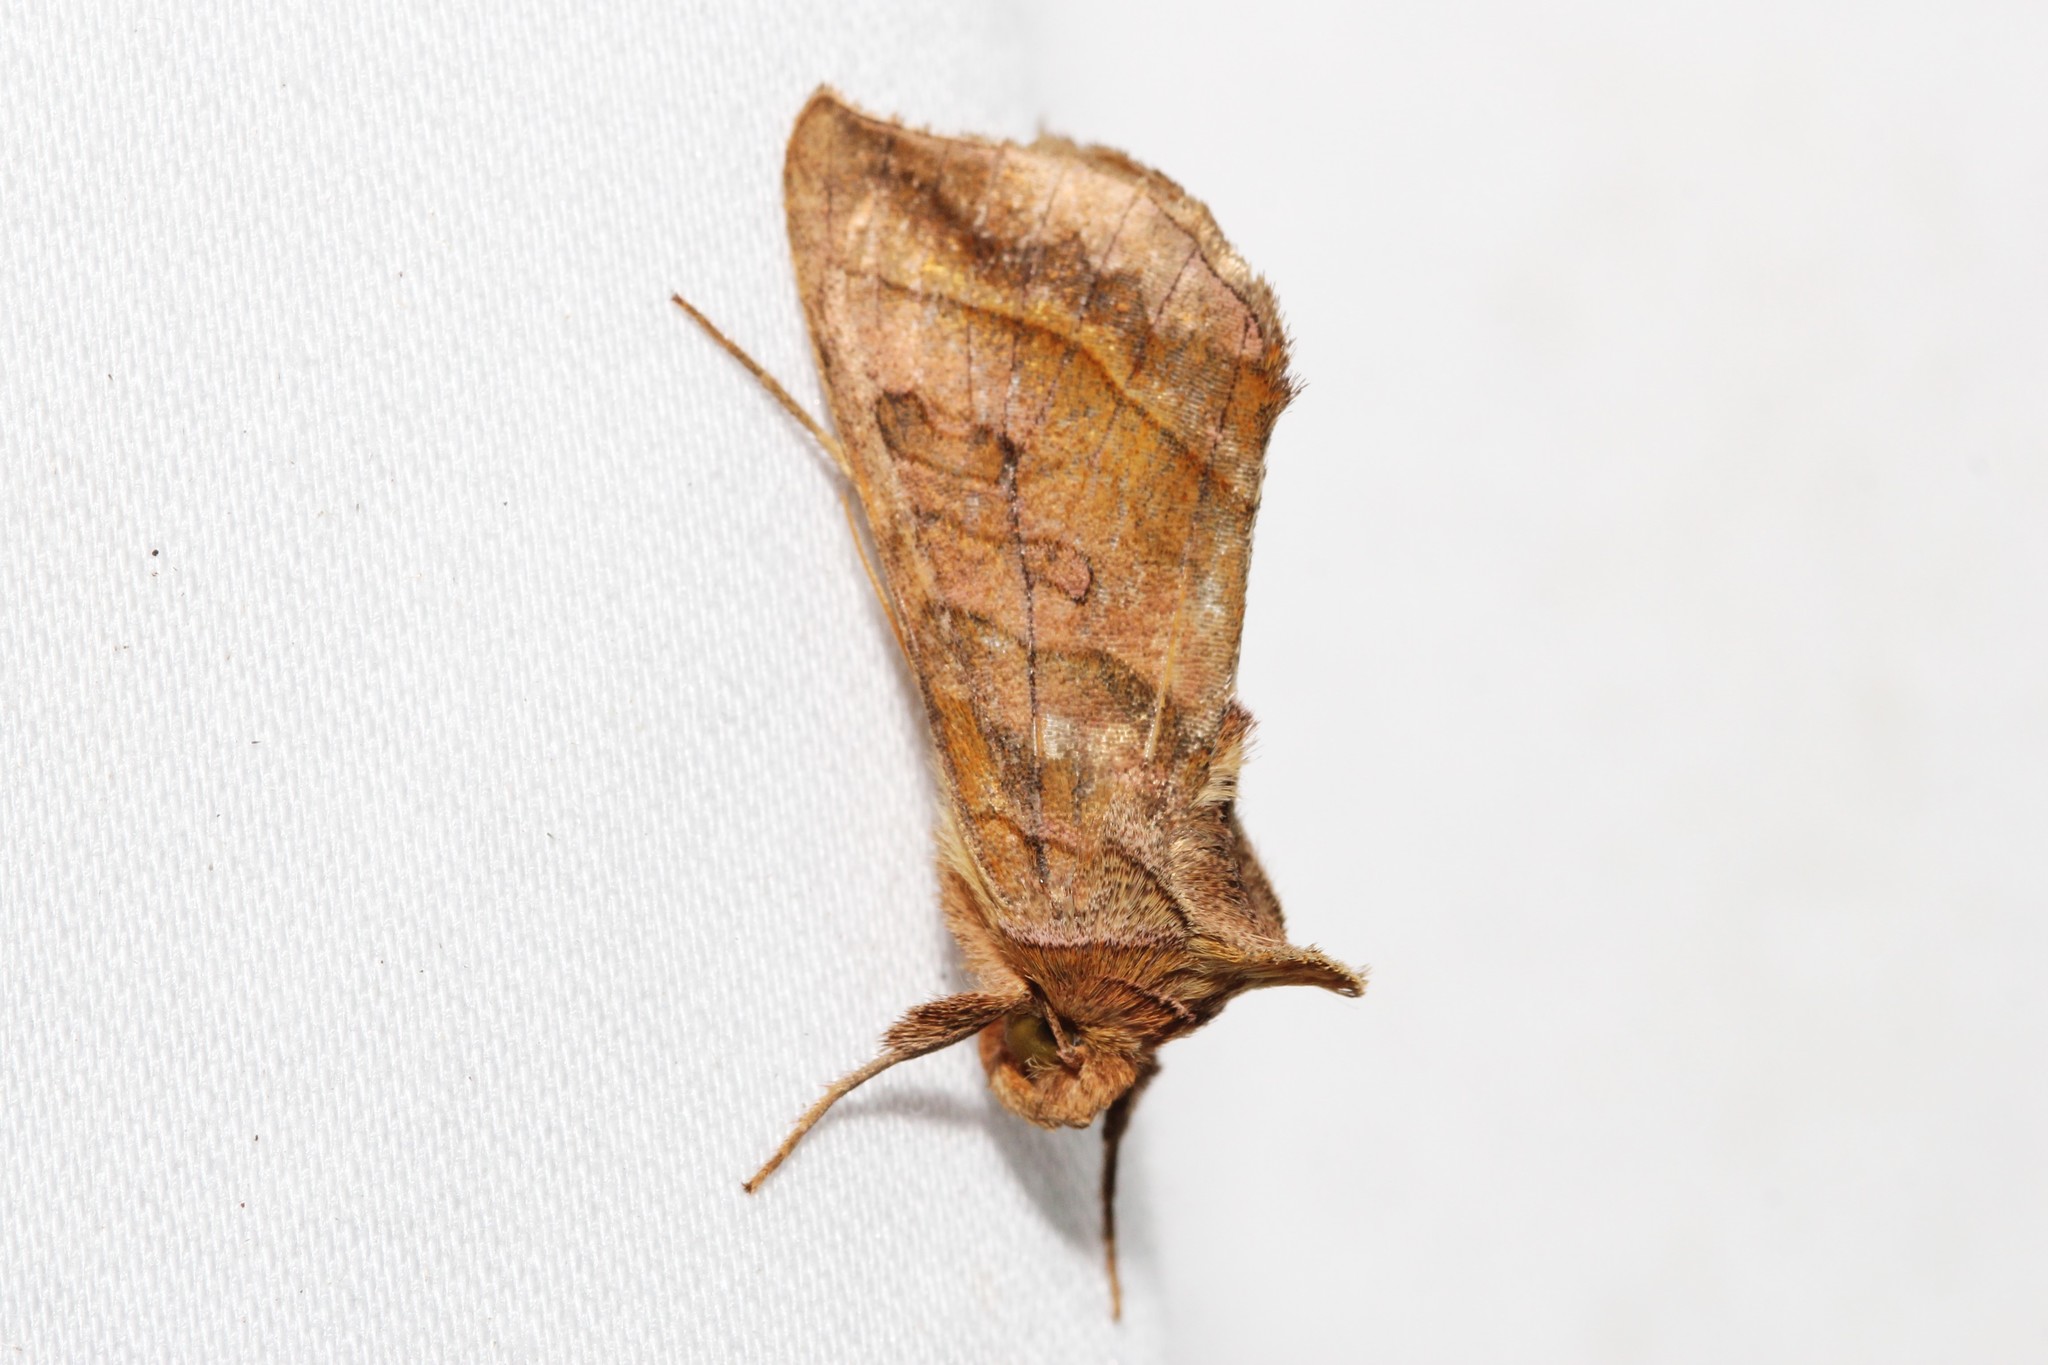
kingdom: Animalia
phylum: Arthropoda
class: Insecta
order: Lepidoptera
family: Noctuidae
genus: Diachrysia
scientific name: Diachrysia aereoides
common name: Dark-spotted looper moth
